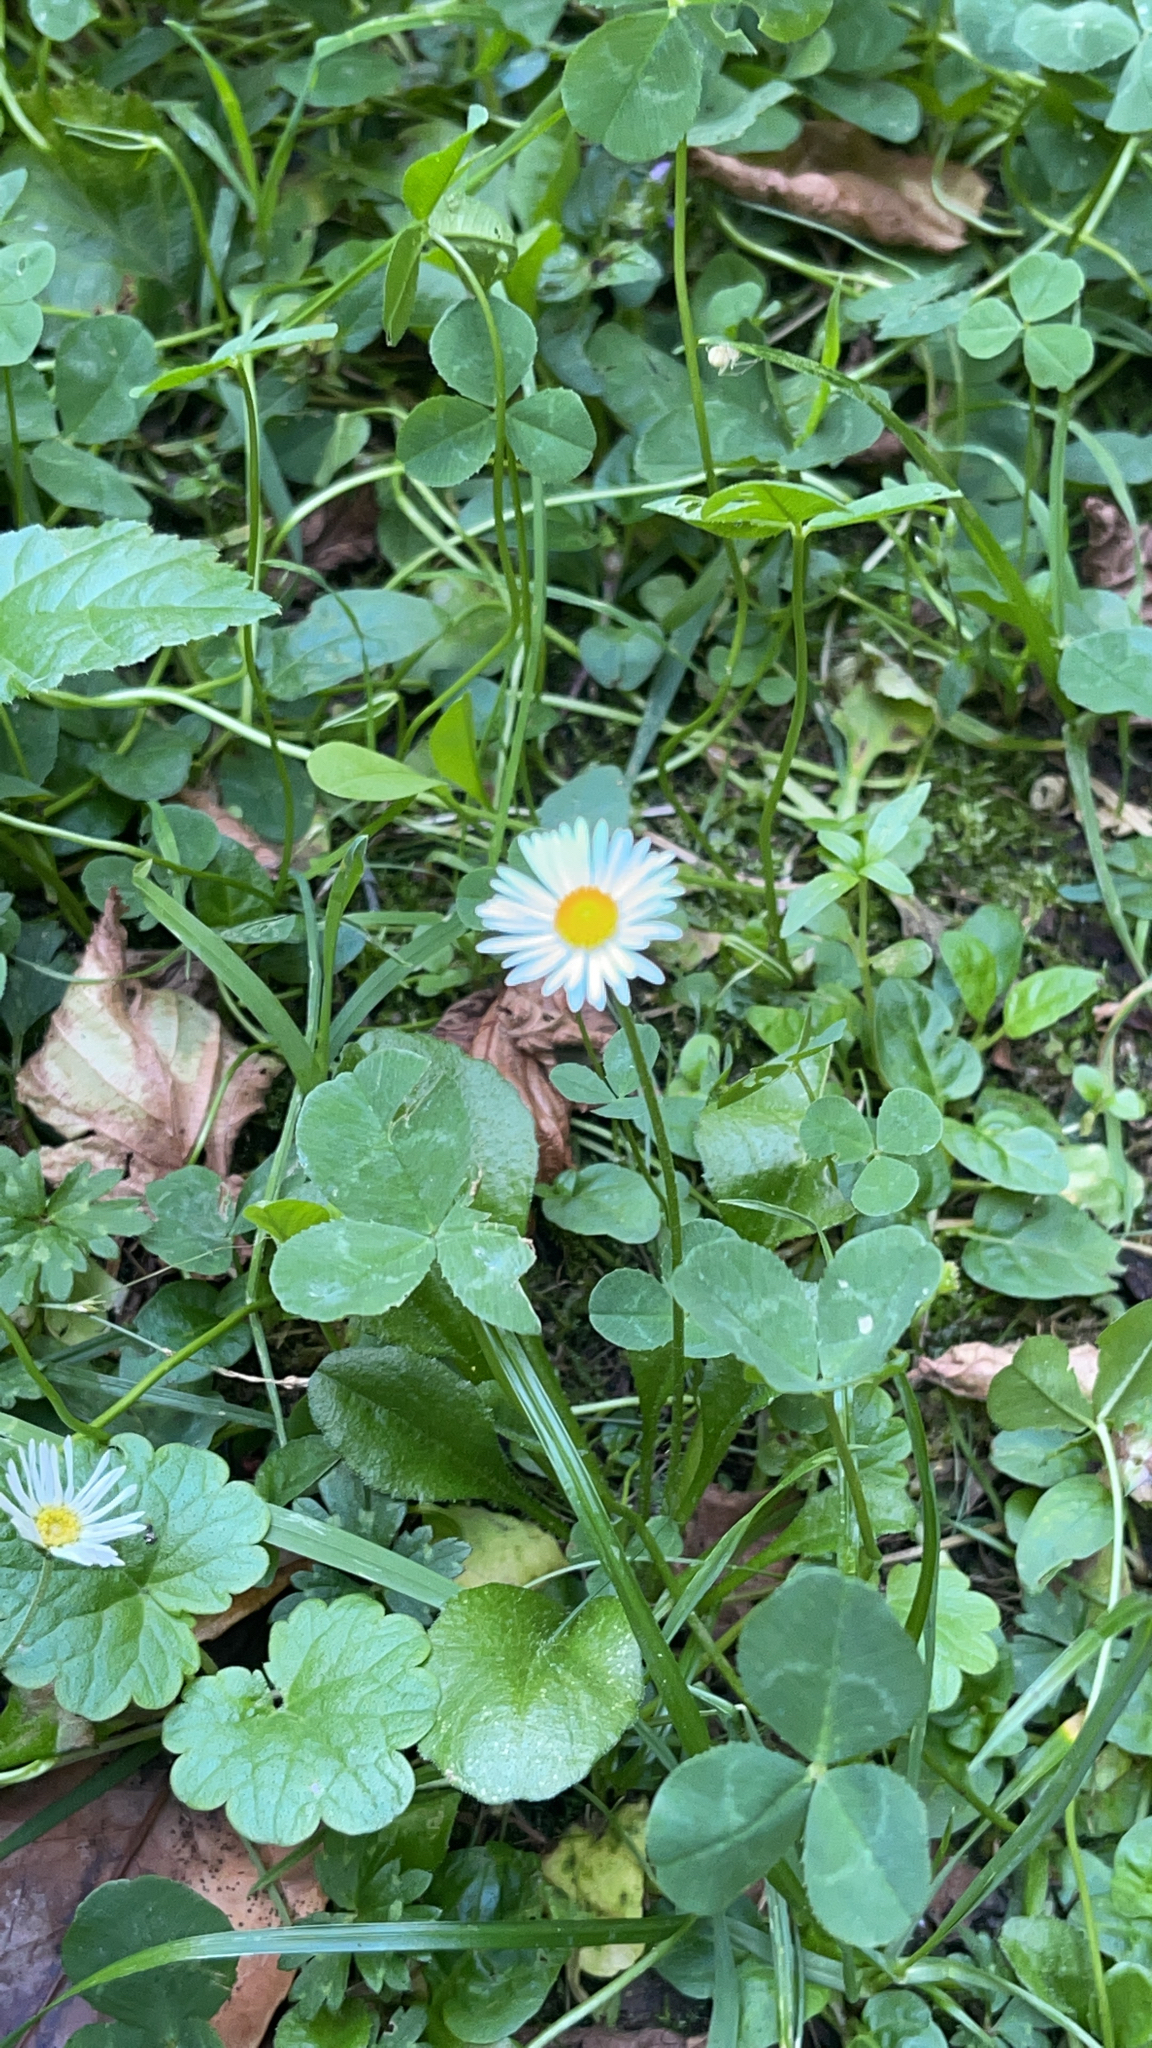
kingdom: Plantae
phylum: Tracheophyta
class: Magnoliopsida
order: Asterales
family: Asteraceae
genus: Bellis
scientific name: Bellis perennis
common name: Lawndaisy
